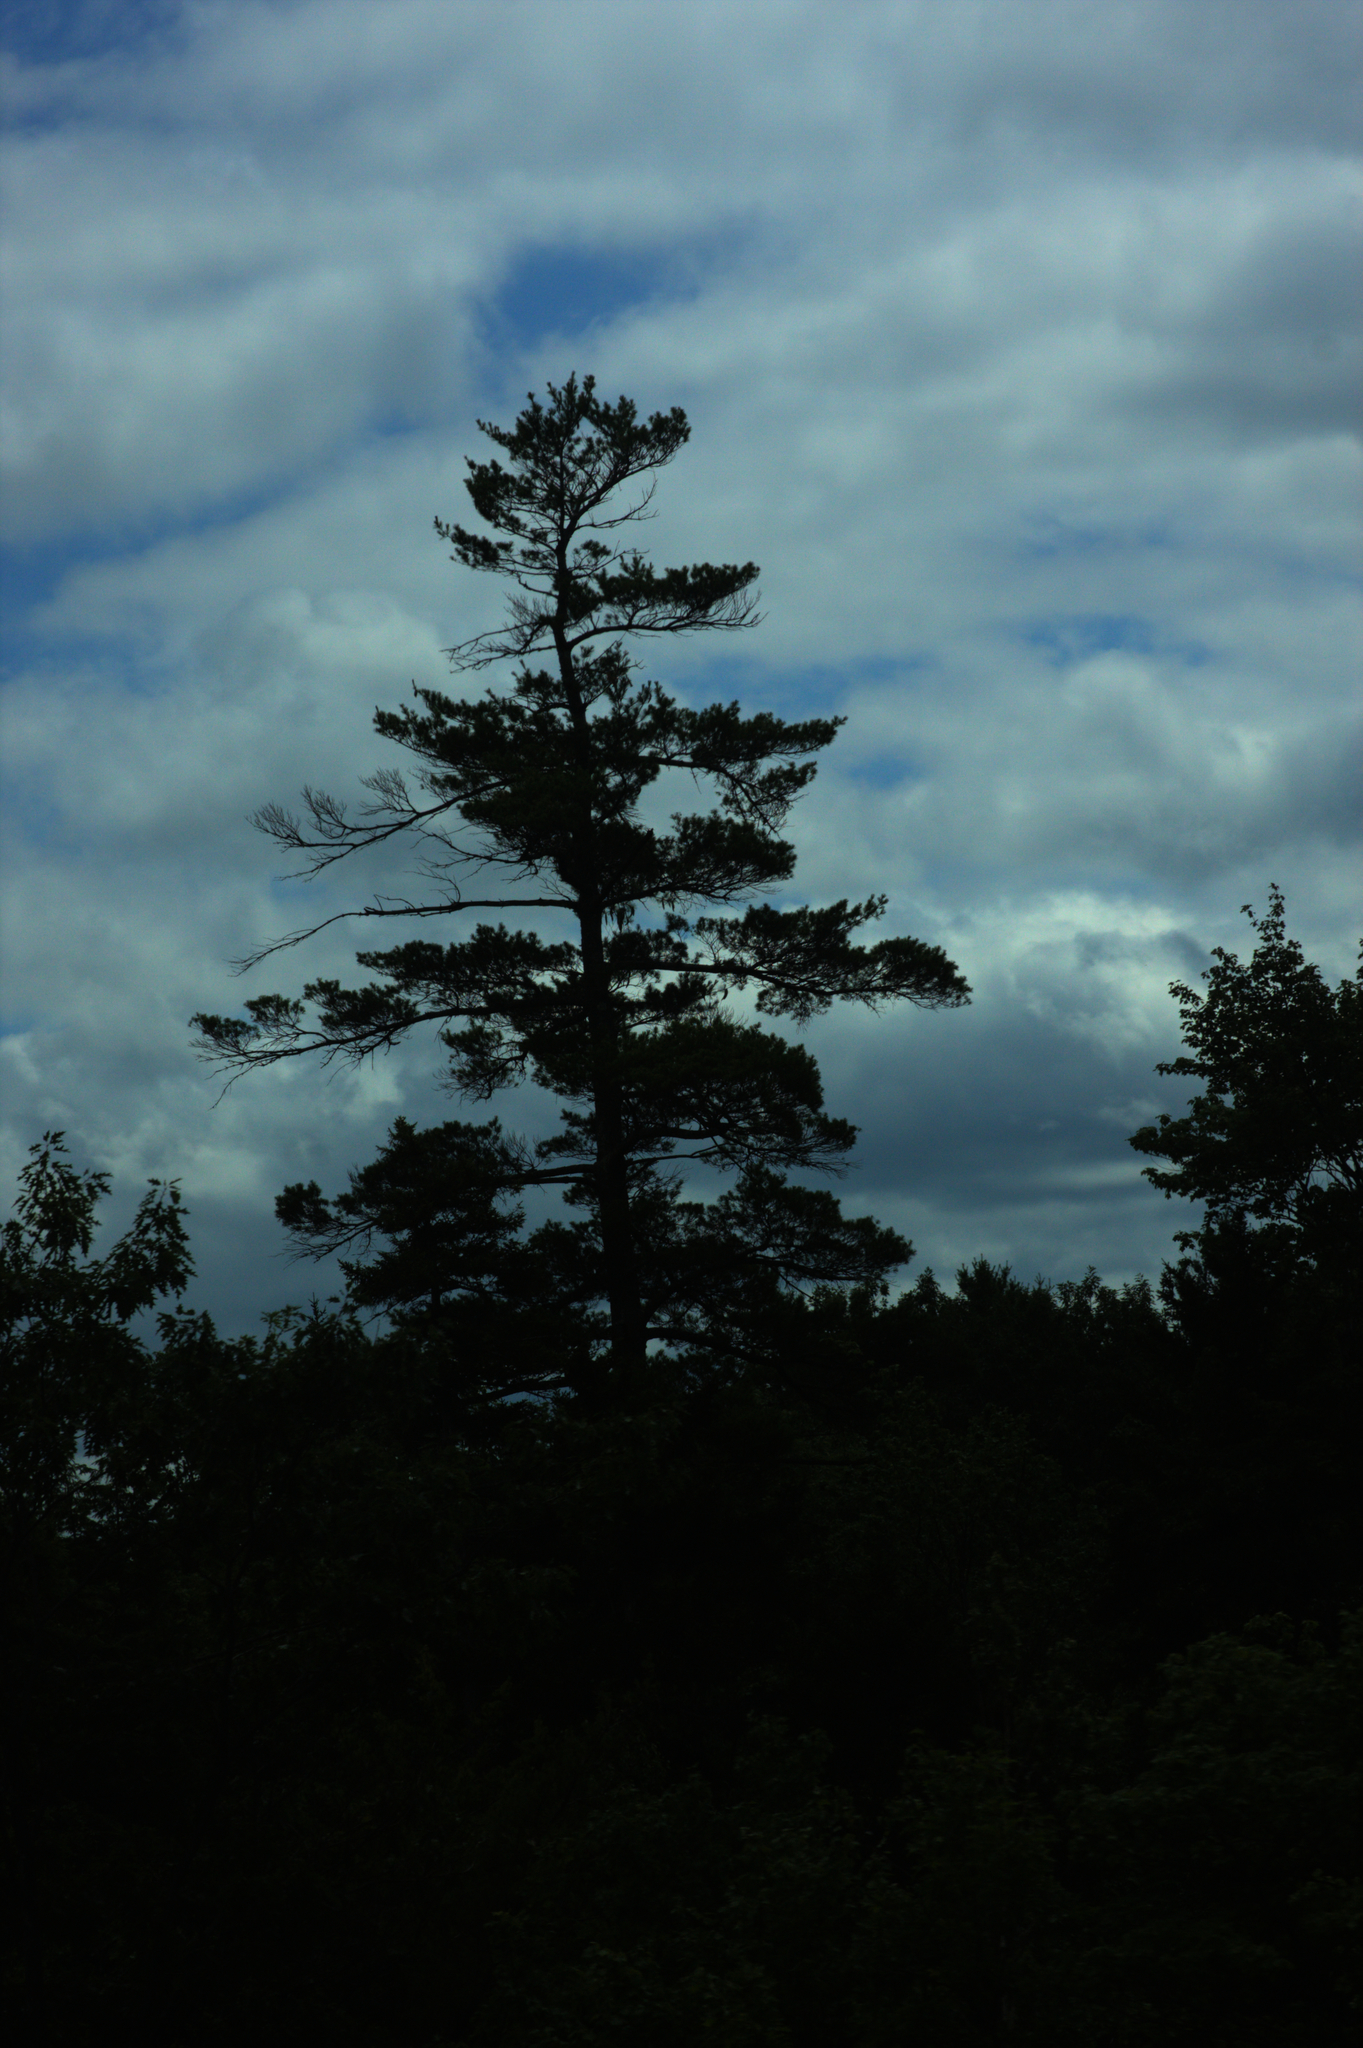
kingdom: Plantae
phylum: Tracheophyta
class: Pinopsida
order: Pinales
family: Pinaceae
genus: Pinus
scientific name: Pinus strobus
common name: Weymouth pine
